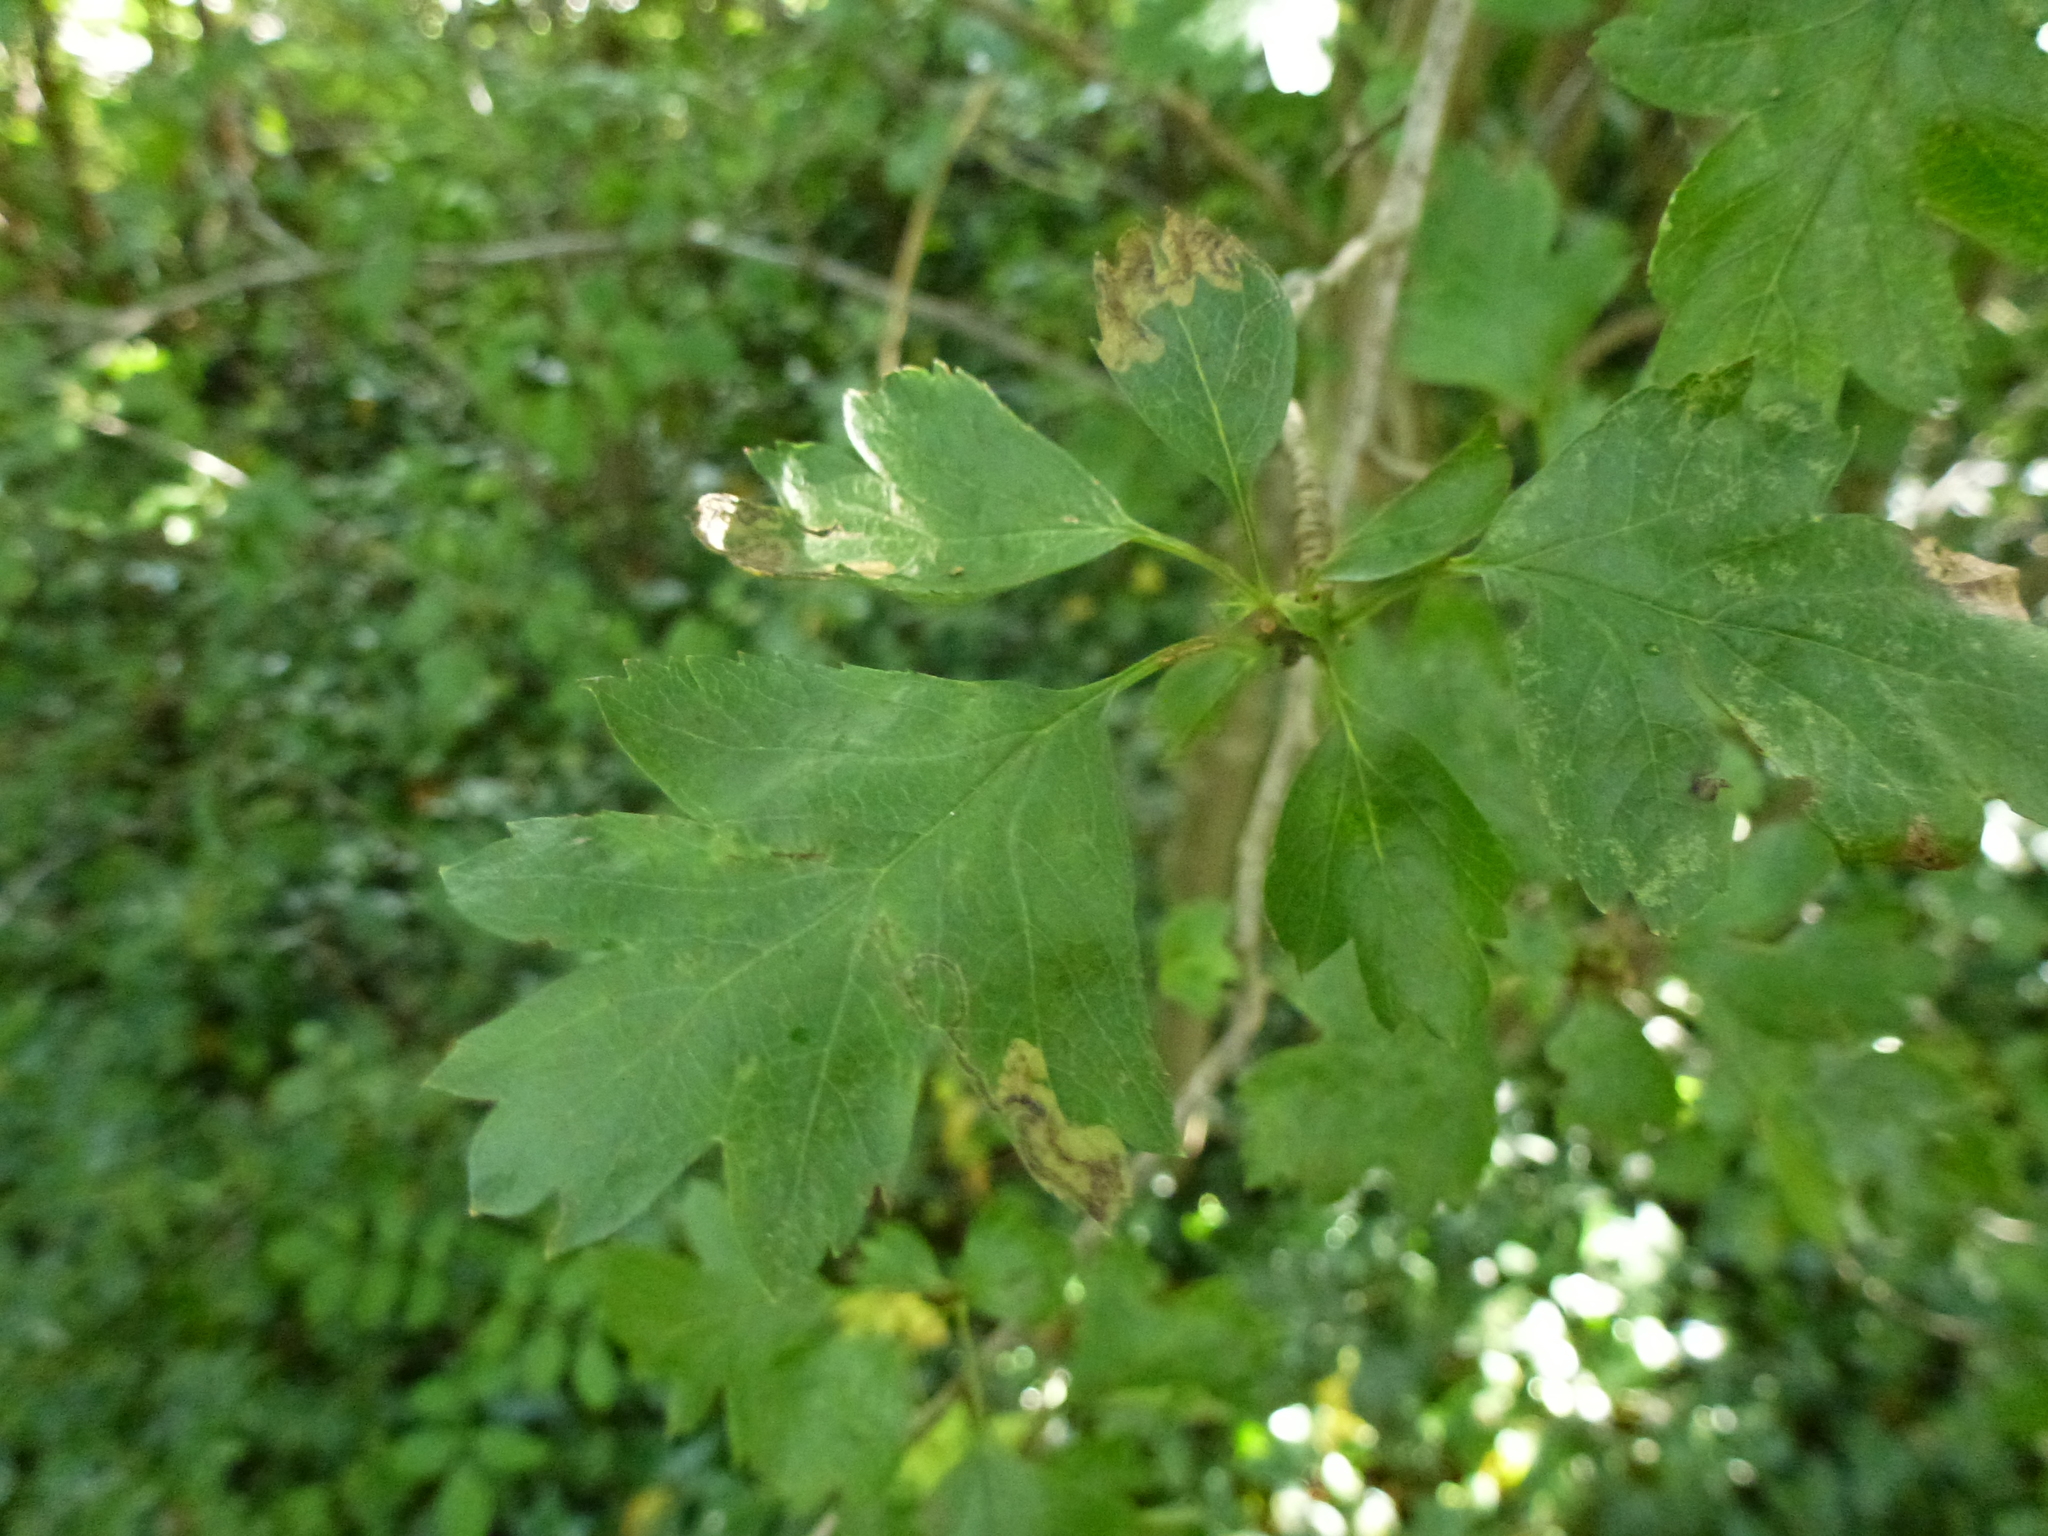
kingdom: Animalia
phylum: Arthropoda
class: Insecta
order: Lepidoptera
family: Nepticulidae
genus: Stigmella
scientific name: Stigmella regiella
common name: Purple-shot pigmy
